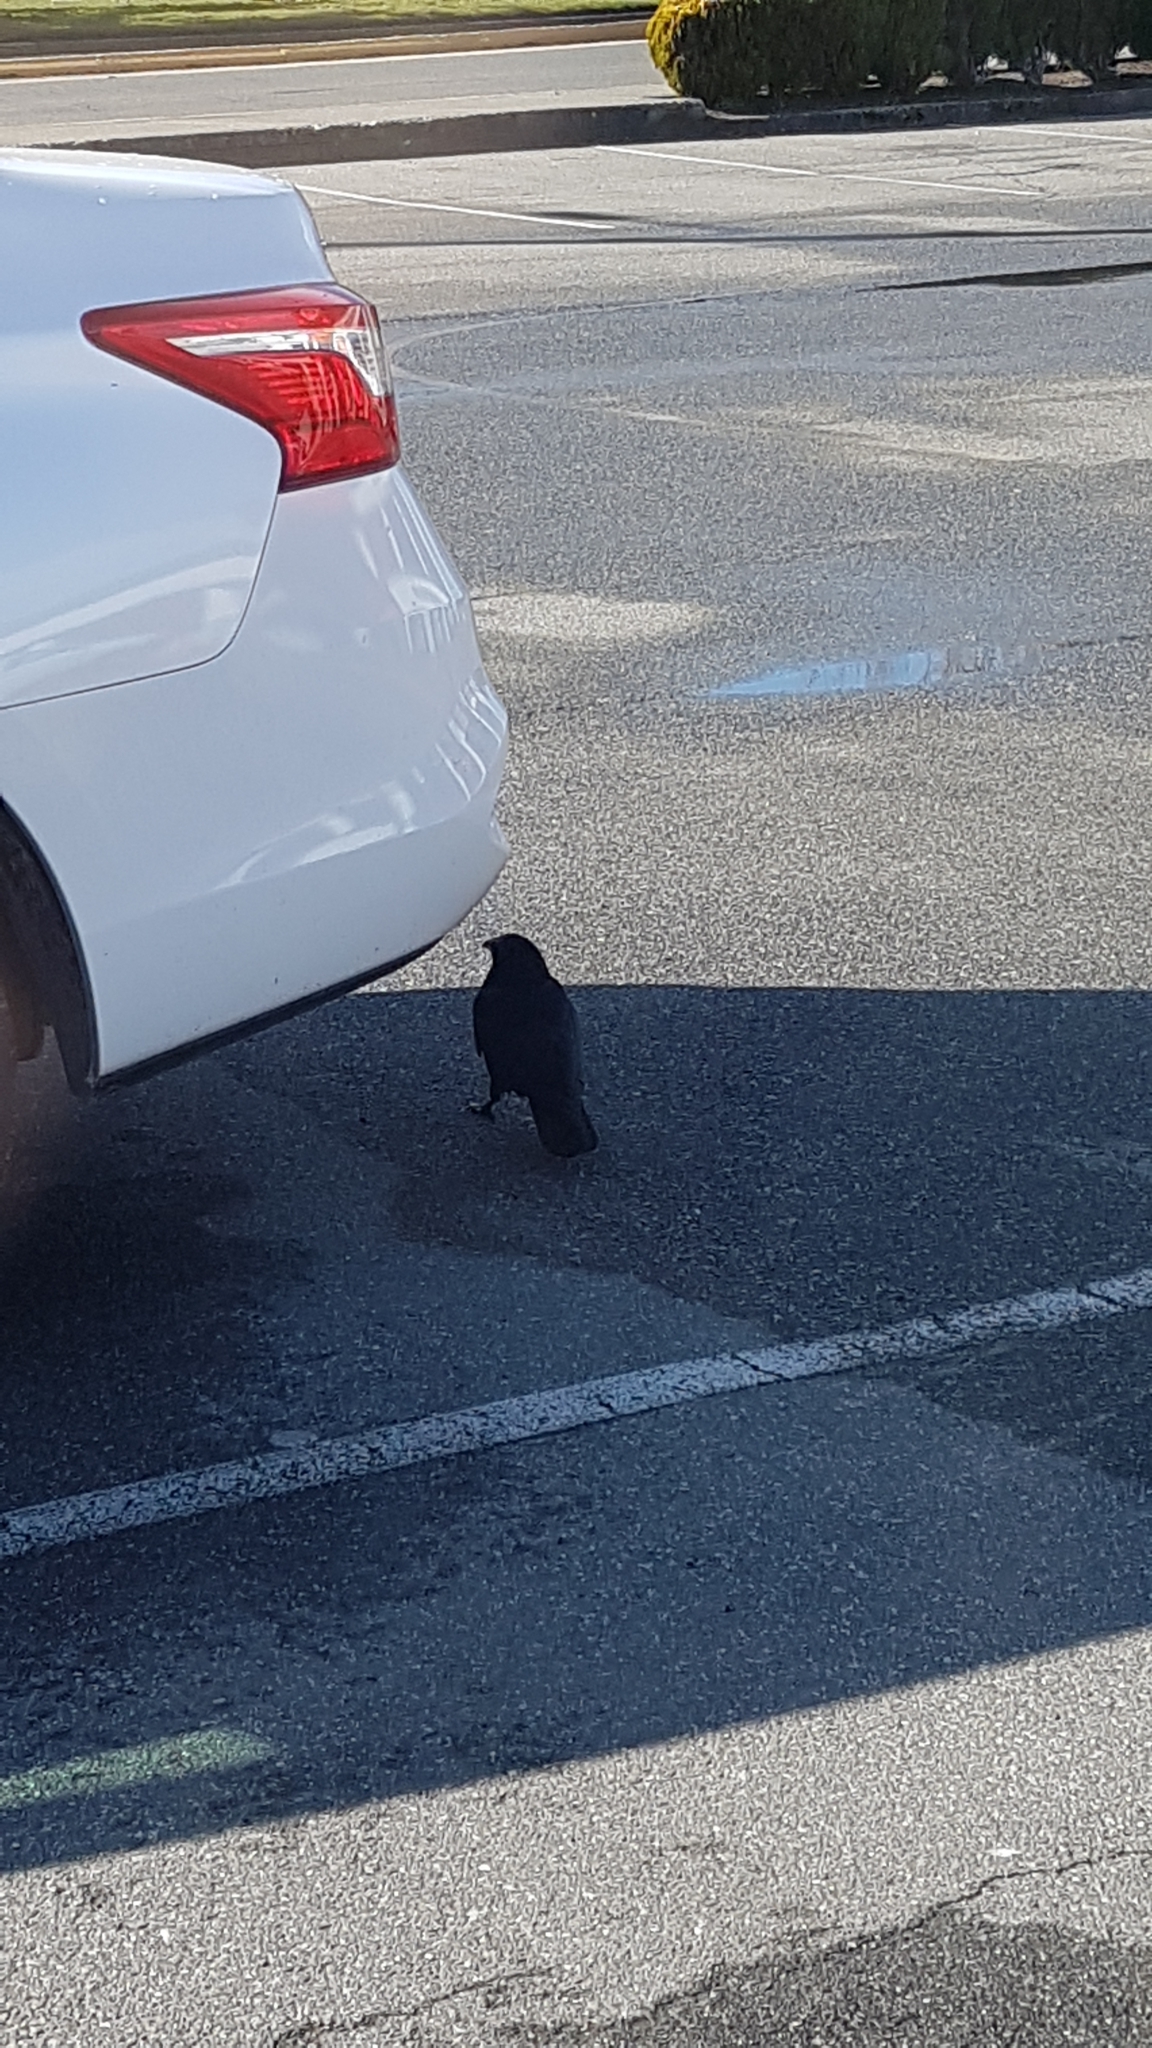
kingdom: Animalia
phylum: Chordata
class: Aves
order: Passeriformes
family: Corvidae
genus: Corvus
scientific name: Corvus brachyrhynchos
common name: American crow
